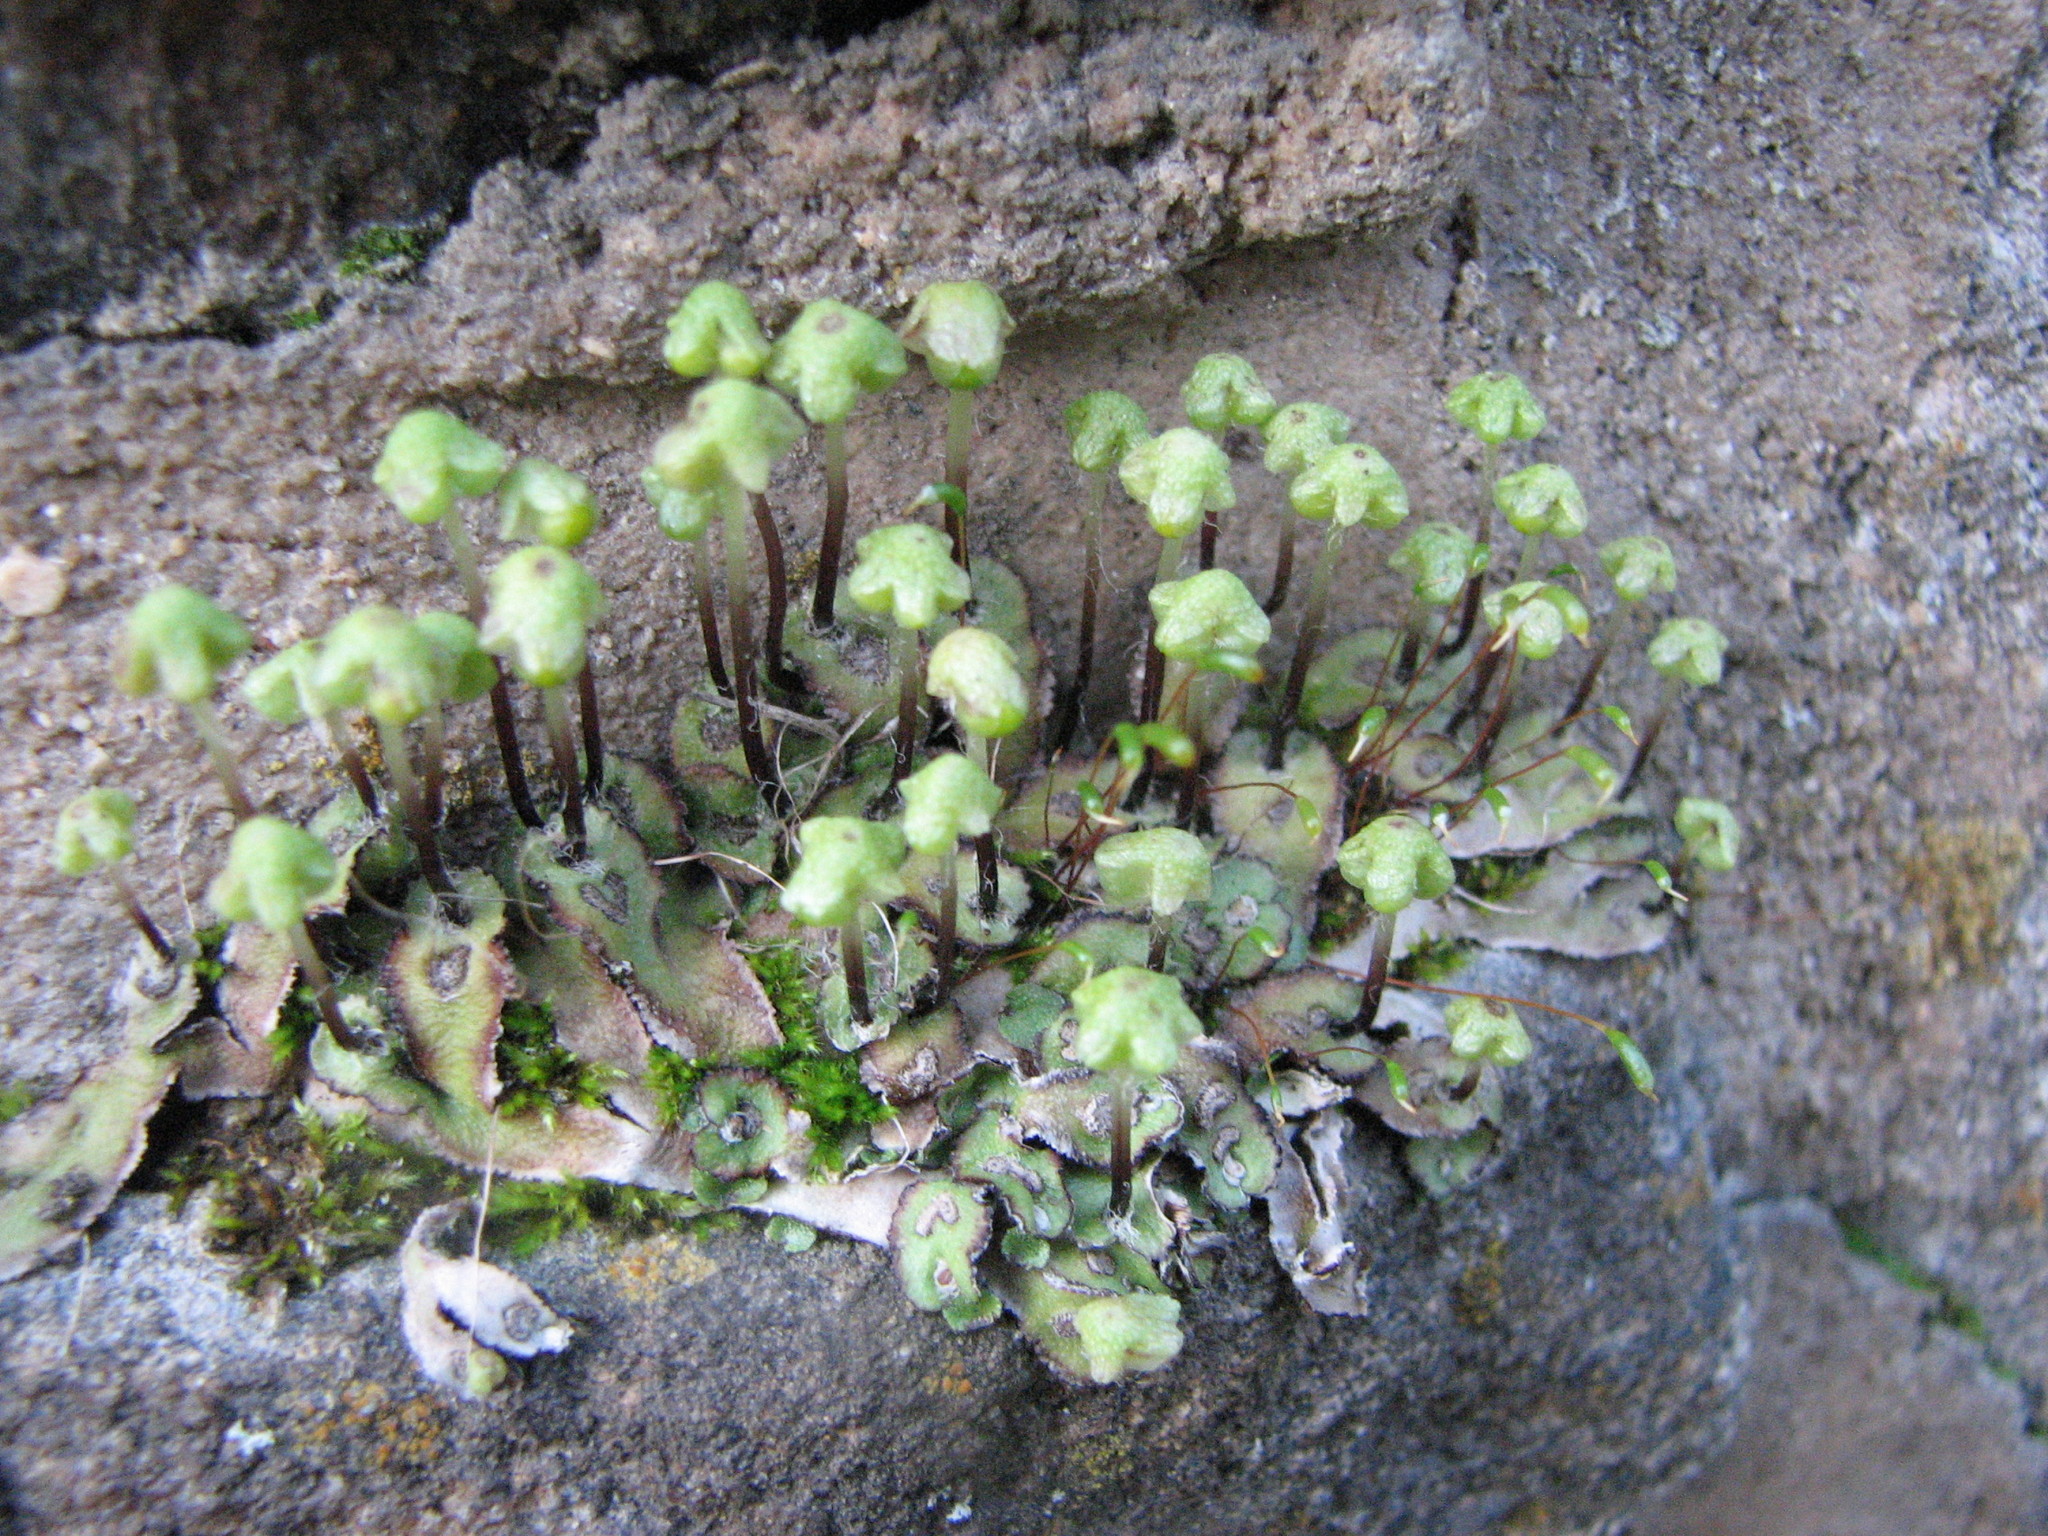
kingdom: Plantae
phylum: Marchantiophyta
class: Marchantiopsida
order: Marchantiales
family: Aytoniaceae
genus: Reboulia
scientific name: Reboulia hemisphaerica
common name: Purple-margined liverwort
